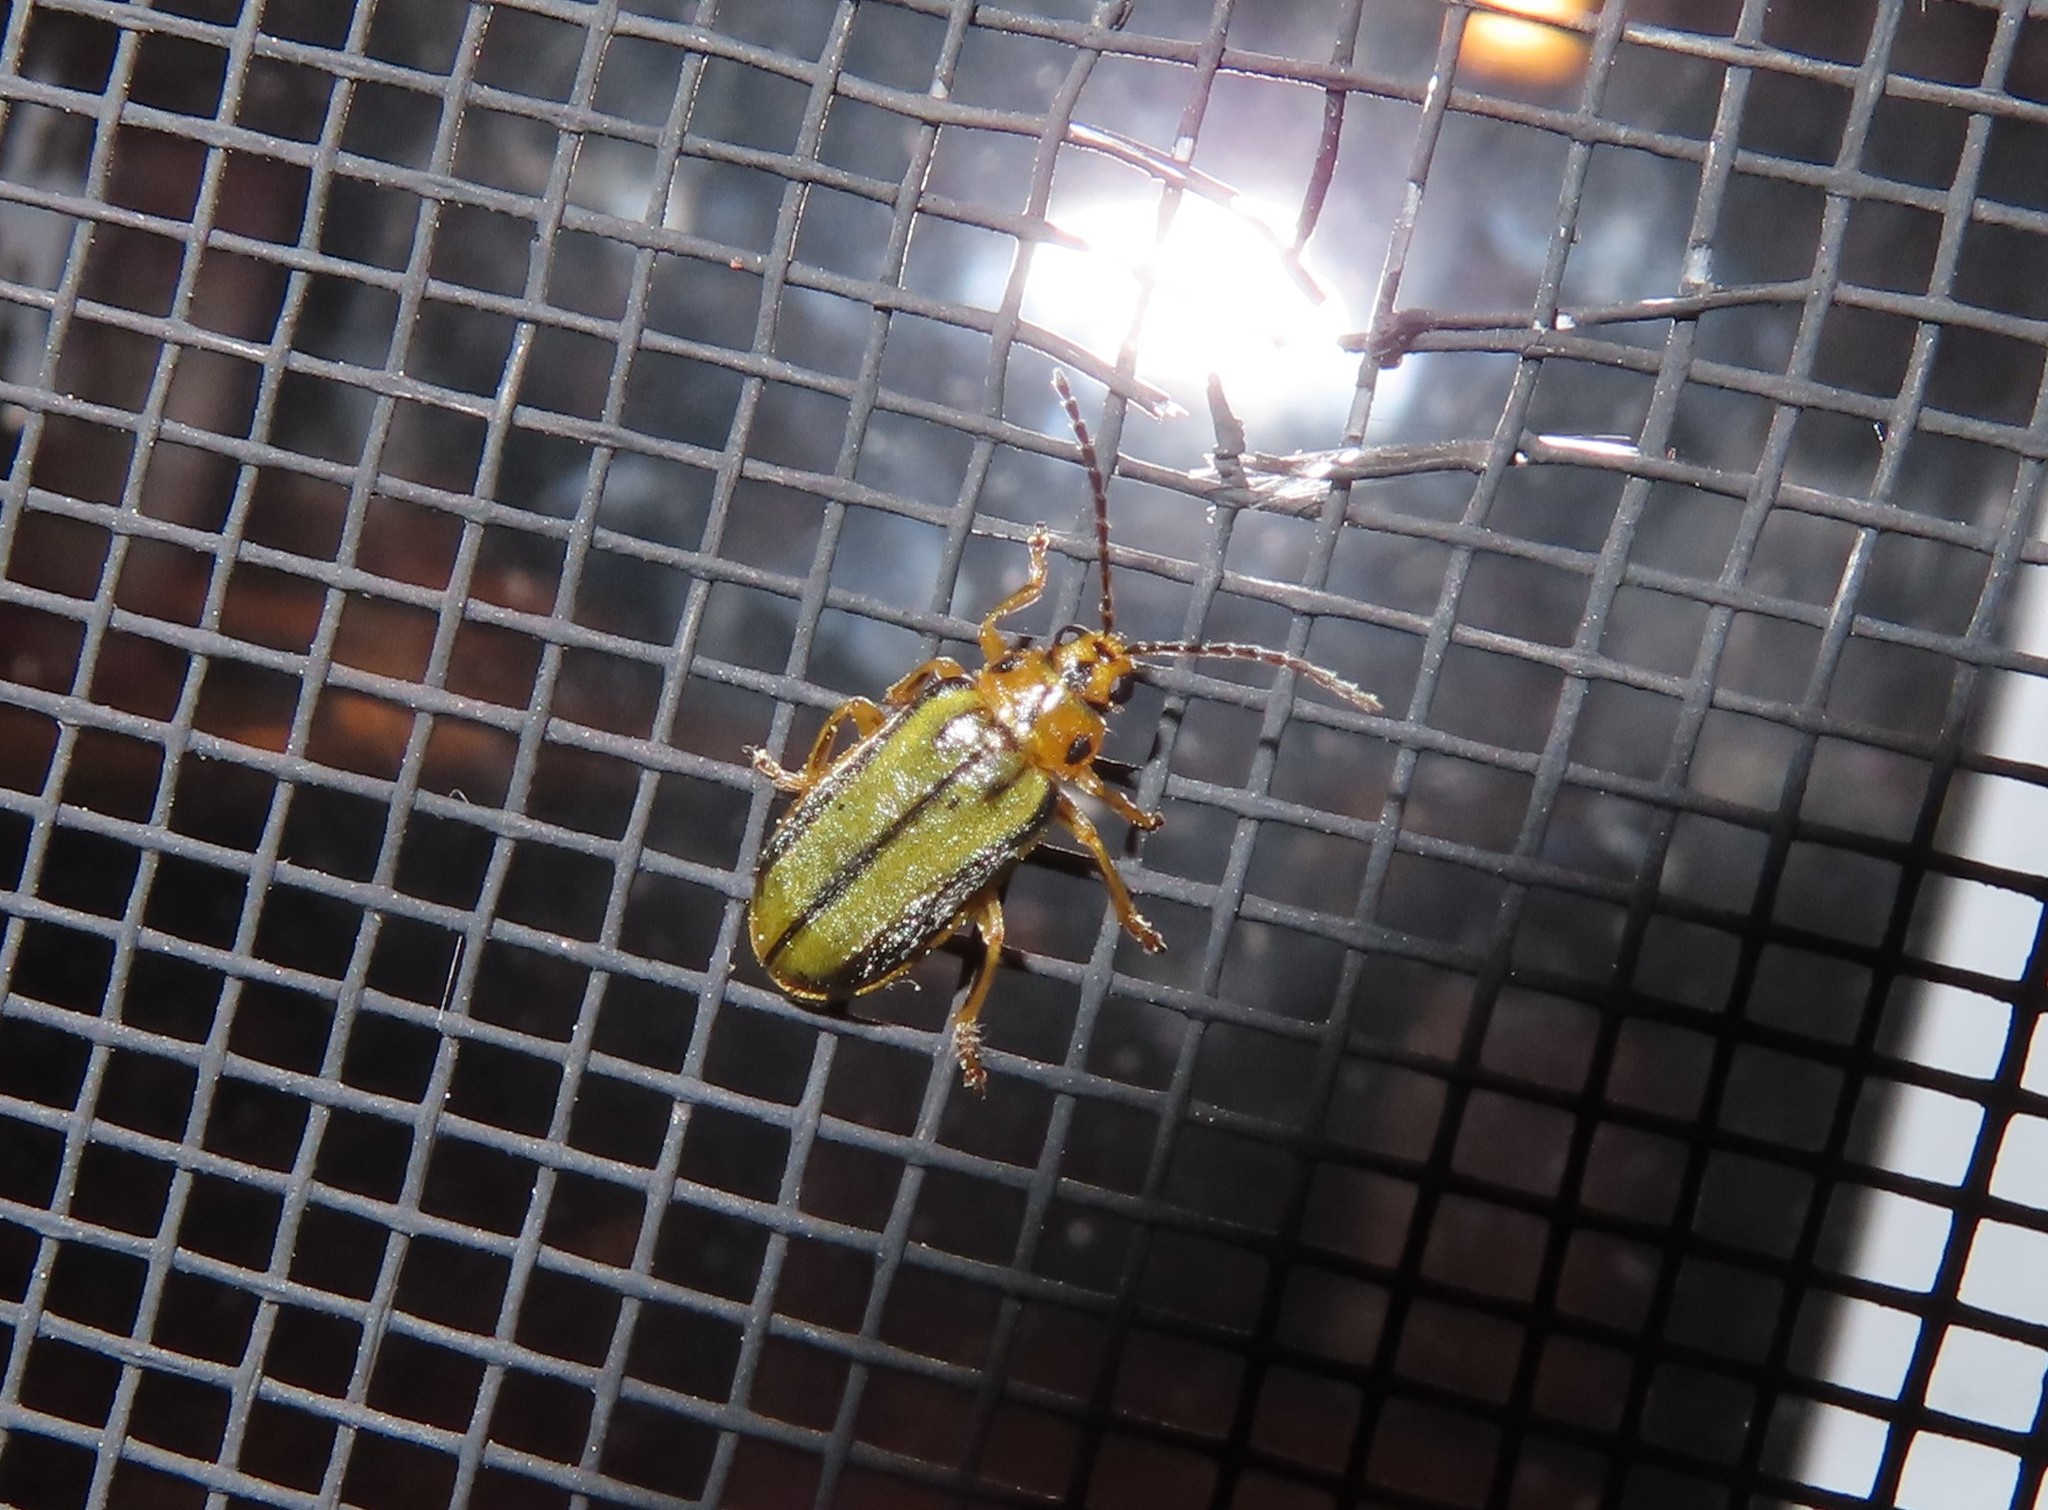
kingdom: Animalia
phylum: Arthropoda
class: Insecta
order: Coleoptera
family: Chrysomelidae
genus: Xanthogaleruca
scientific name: Xanthogaleruca luteola
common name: Elm leaf beetle
